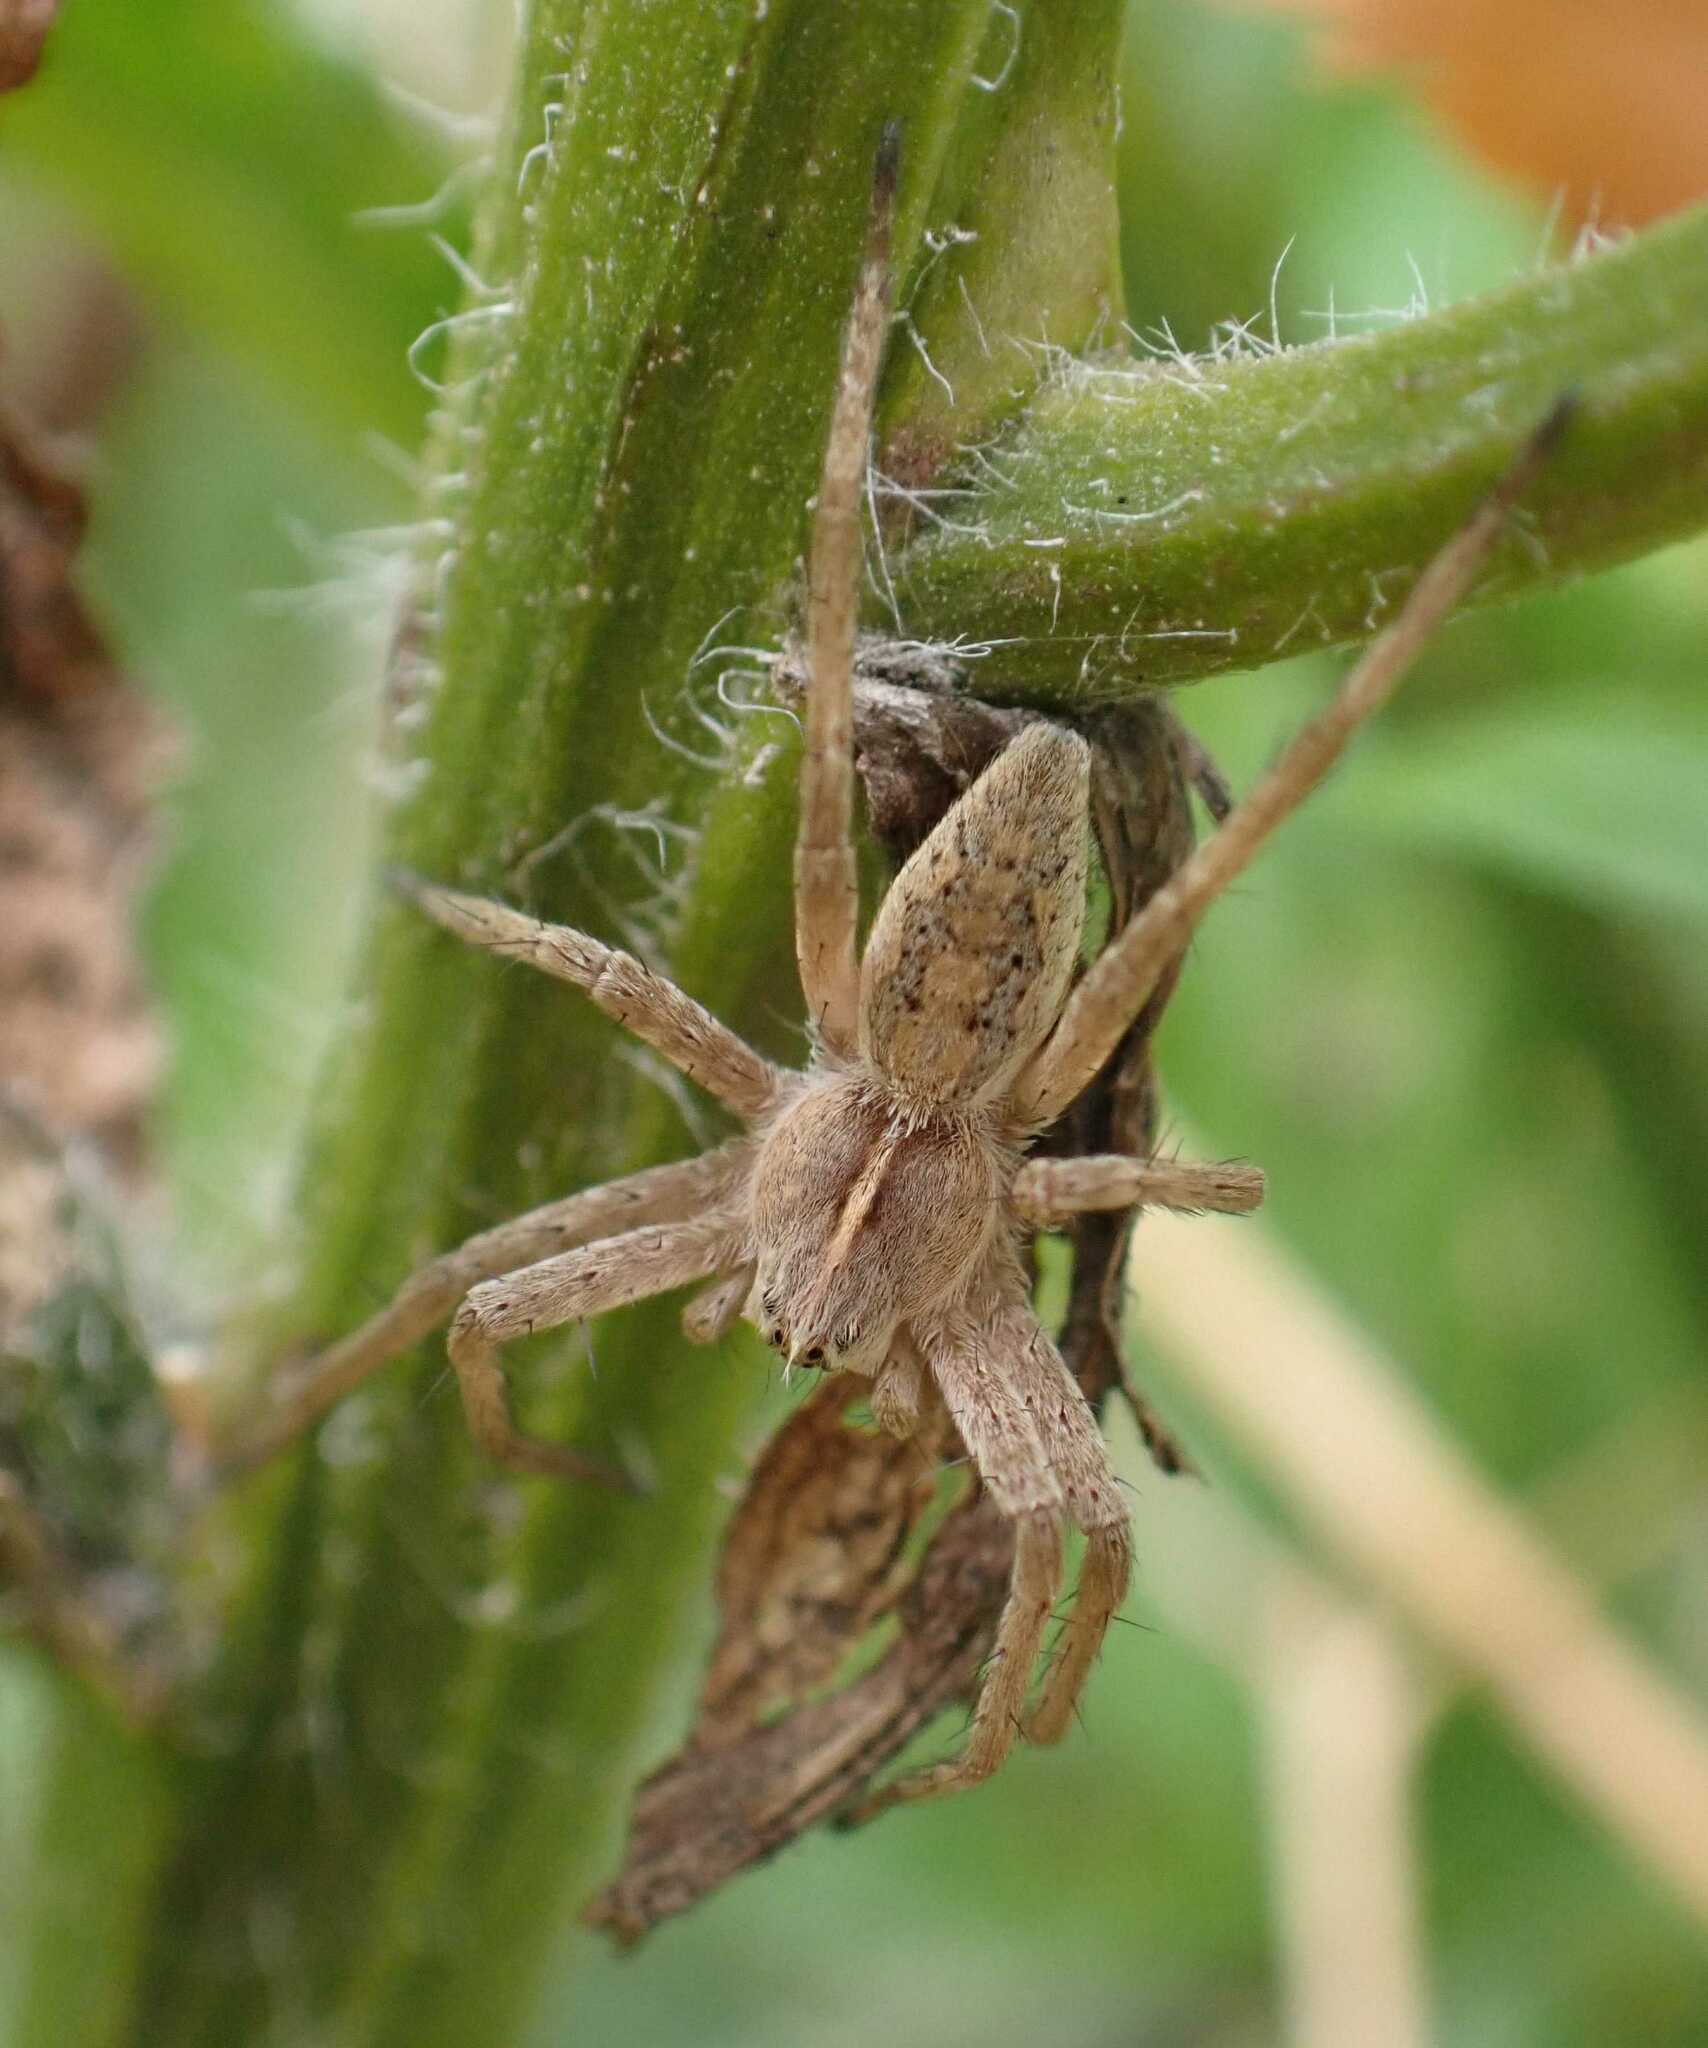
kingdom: Animalia
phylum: Arthropoda
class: Arachnida
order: Araneae
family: Pisauridae
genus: Pisaura
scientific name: Pisaura mirabilis
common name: Tent spider
